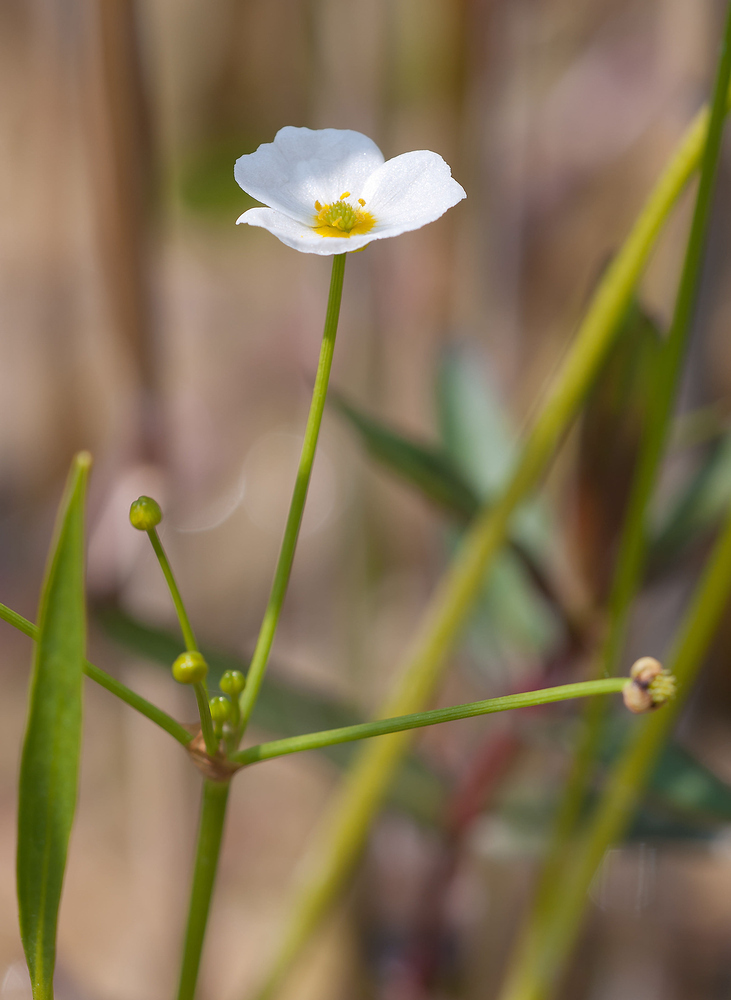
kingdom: Plantae
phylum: Tracheophyta
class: Liliopsida
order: Alismatales
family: Alismataceae
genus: Baldellia
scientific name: Baldellia ranunculoides
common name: Lesser water-plantain
